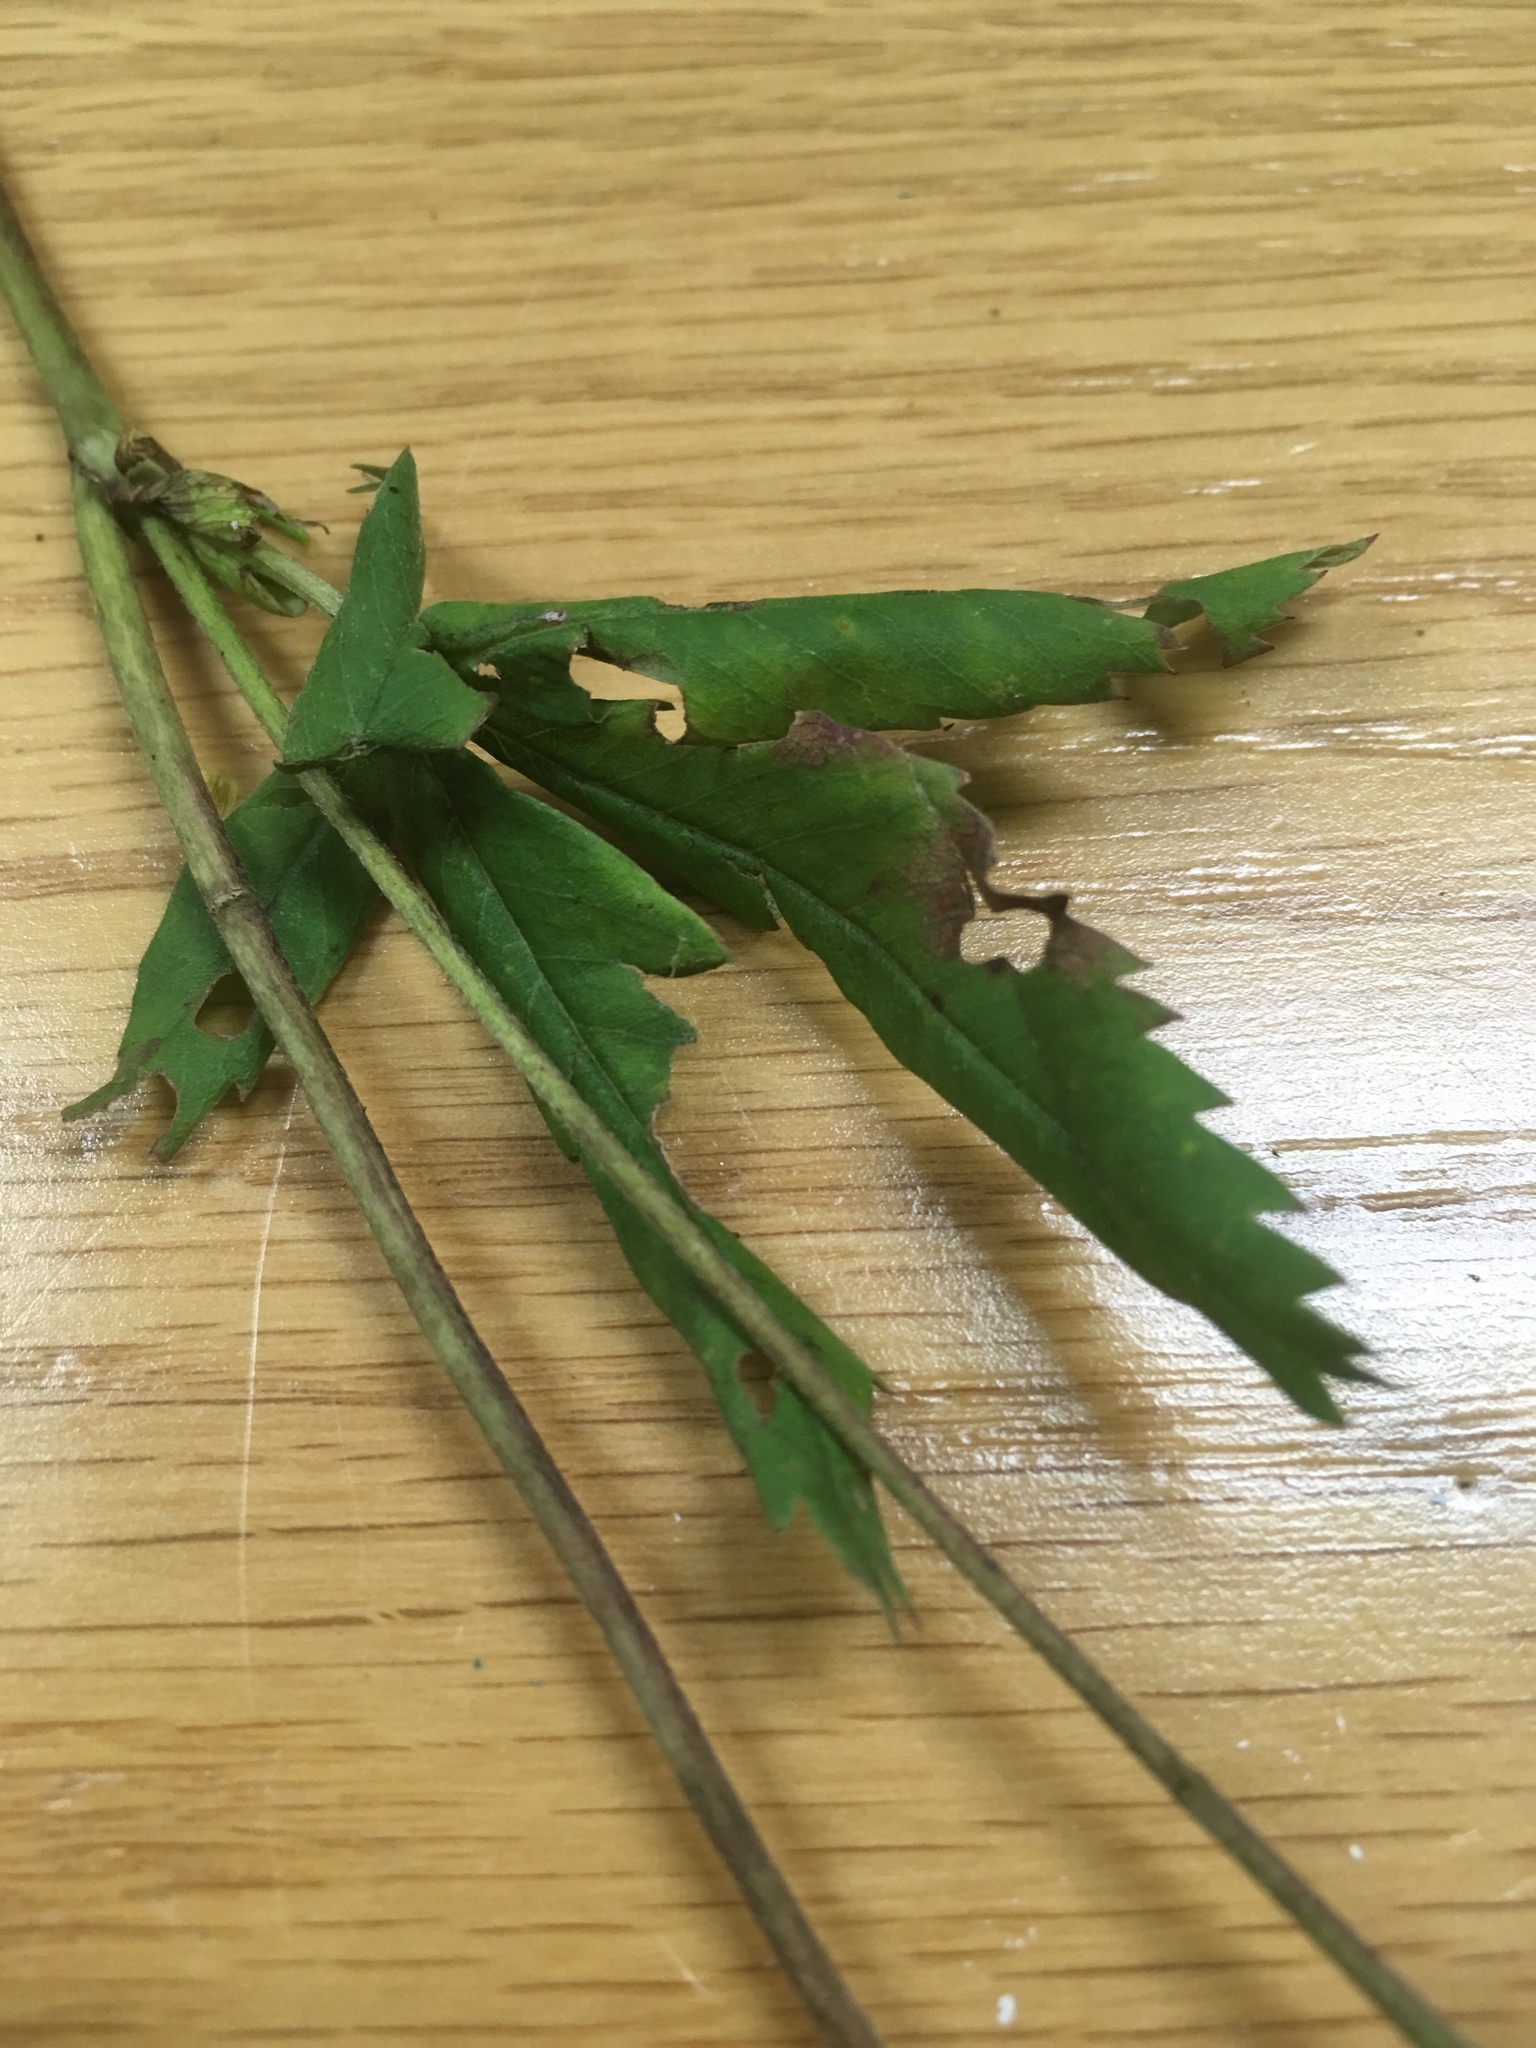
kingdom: Plantae
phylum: Tracheophyta
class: Magnoliopsida
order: Rosales
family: Rosaceae
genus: Comarum
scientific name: Comarum palustre
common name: Marsh cinquefoil
